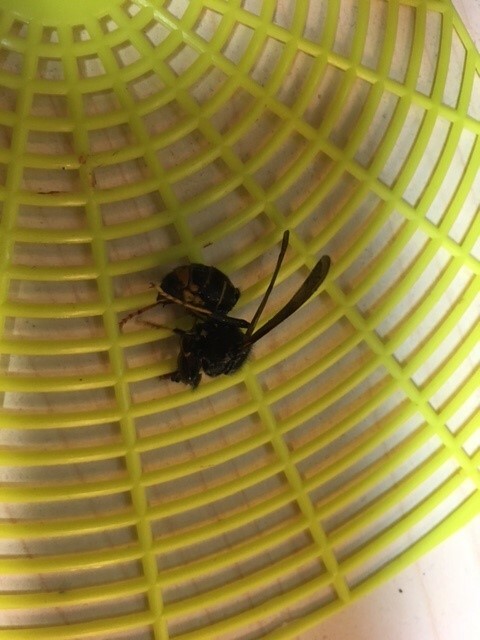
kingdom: Animalia
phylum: Arthropoda
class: Insecta
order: Hymenoptera
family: Vespidae
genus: Vespa
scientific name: Vespa velutina
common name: Asian hornet
